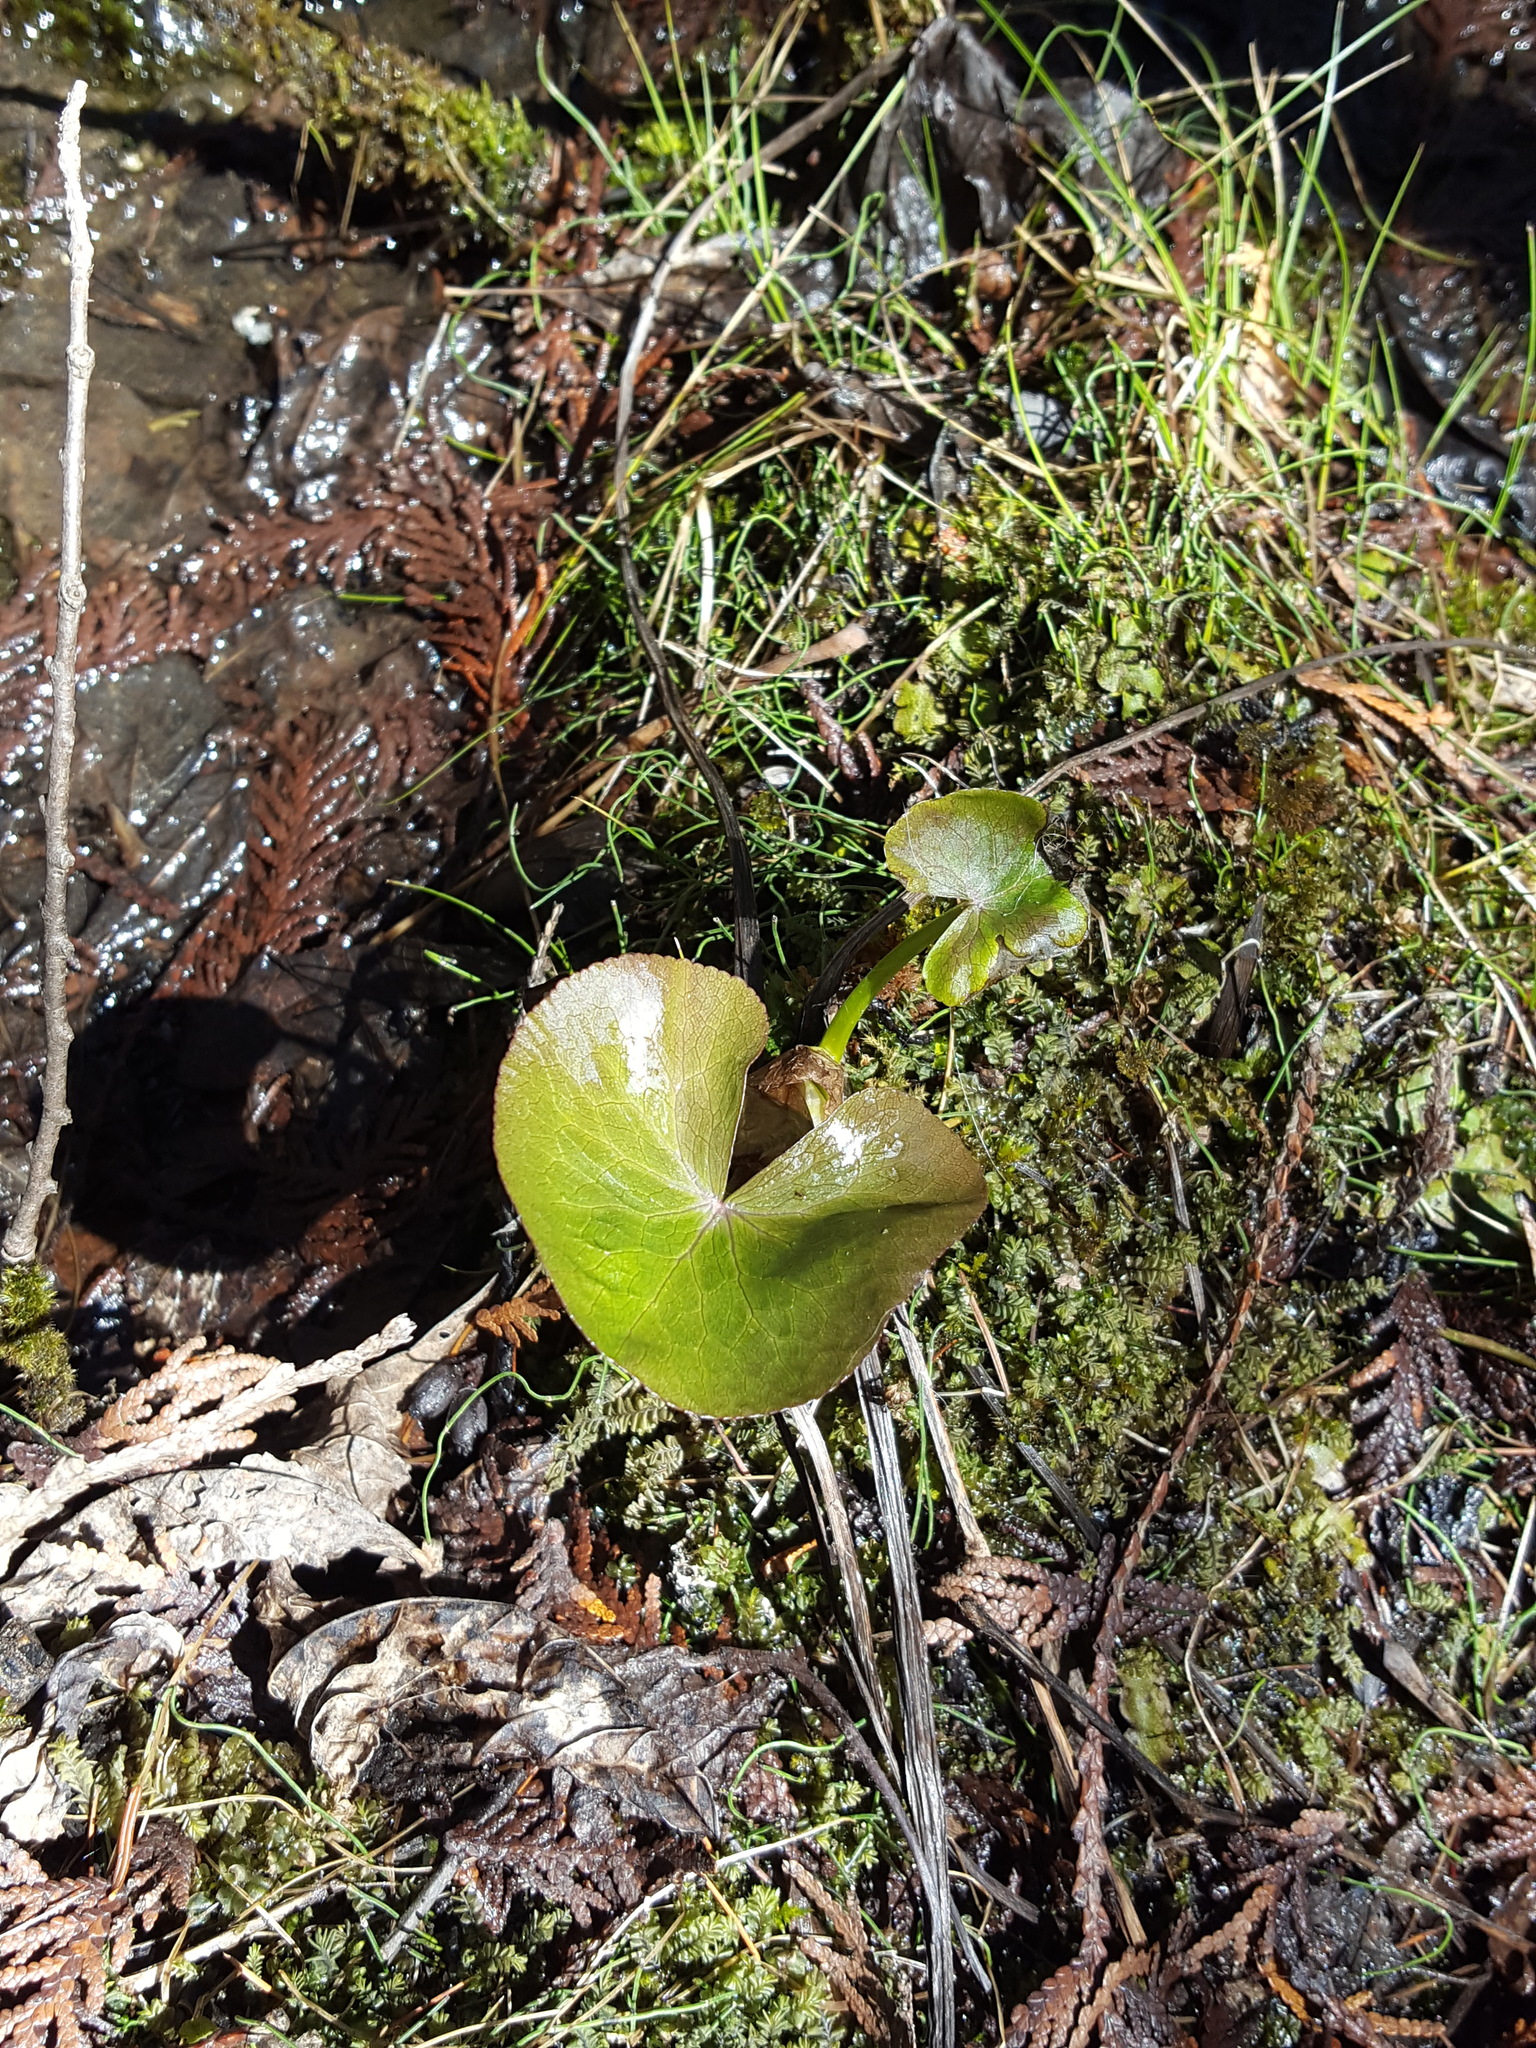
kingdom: Plantae
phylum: Tracheophyta
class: Magnoliopsida
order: Ranunculales
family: Ranunculaceae
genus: Caltha
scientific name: Caltha palustris
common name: Marsh marigold
